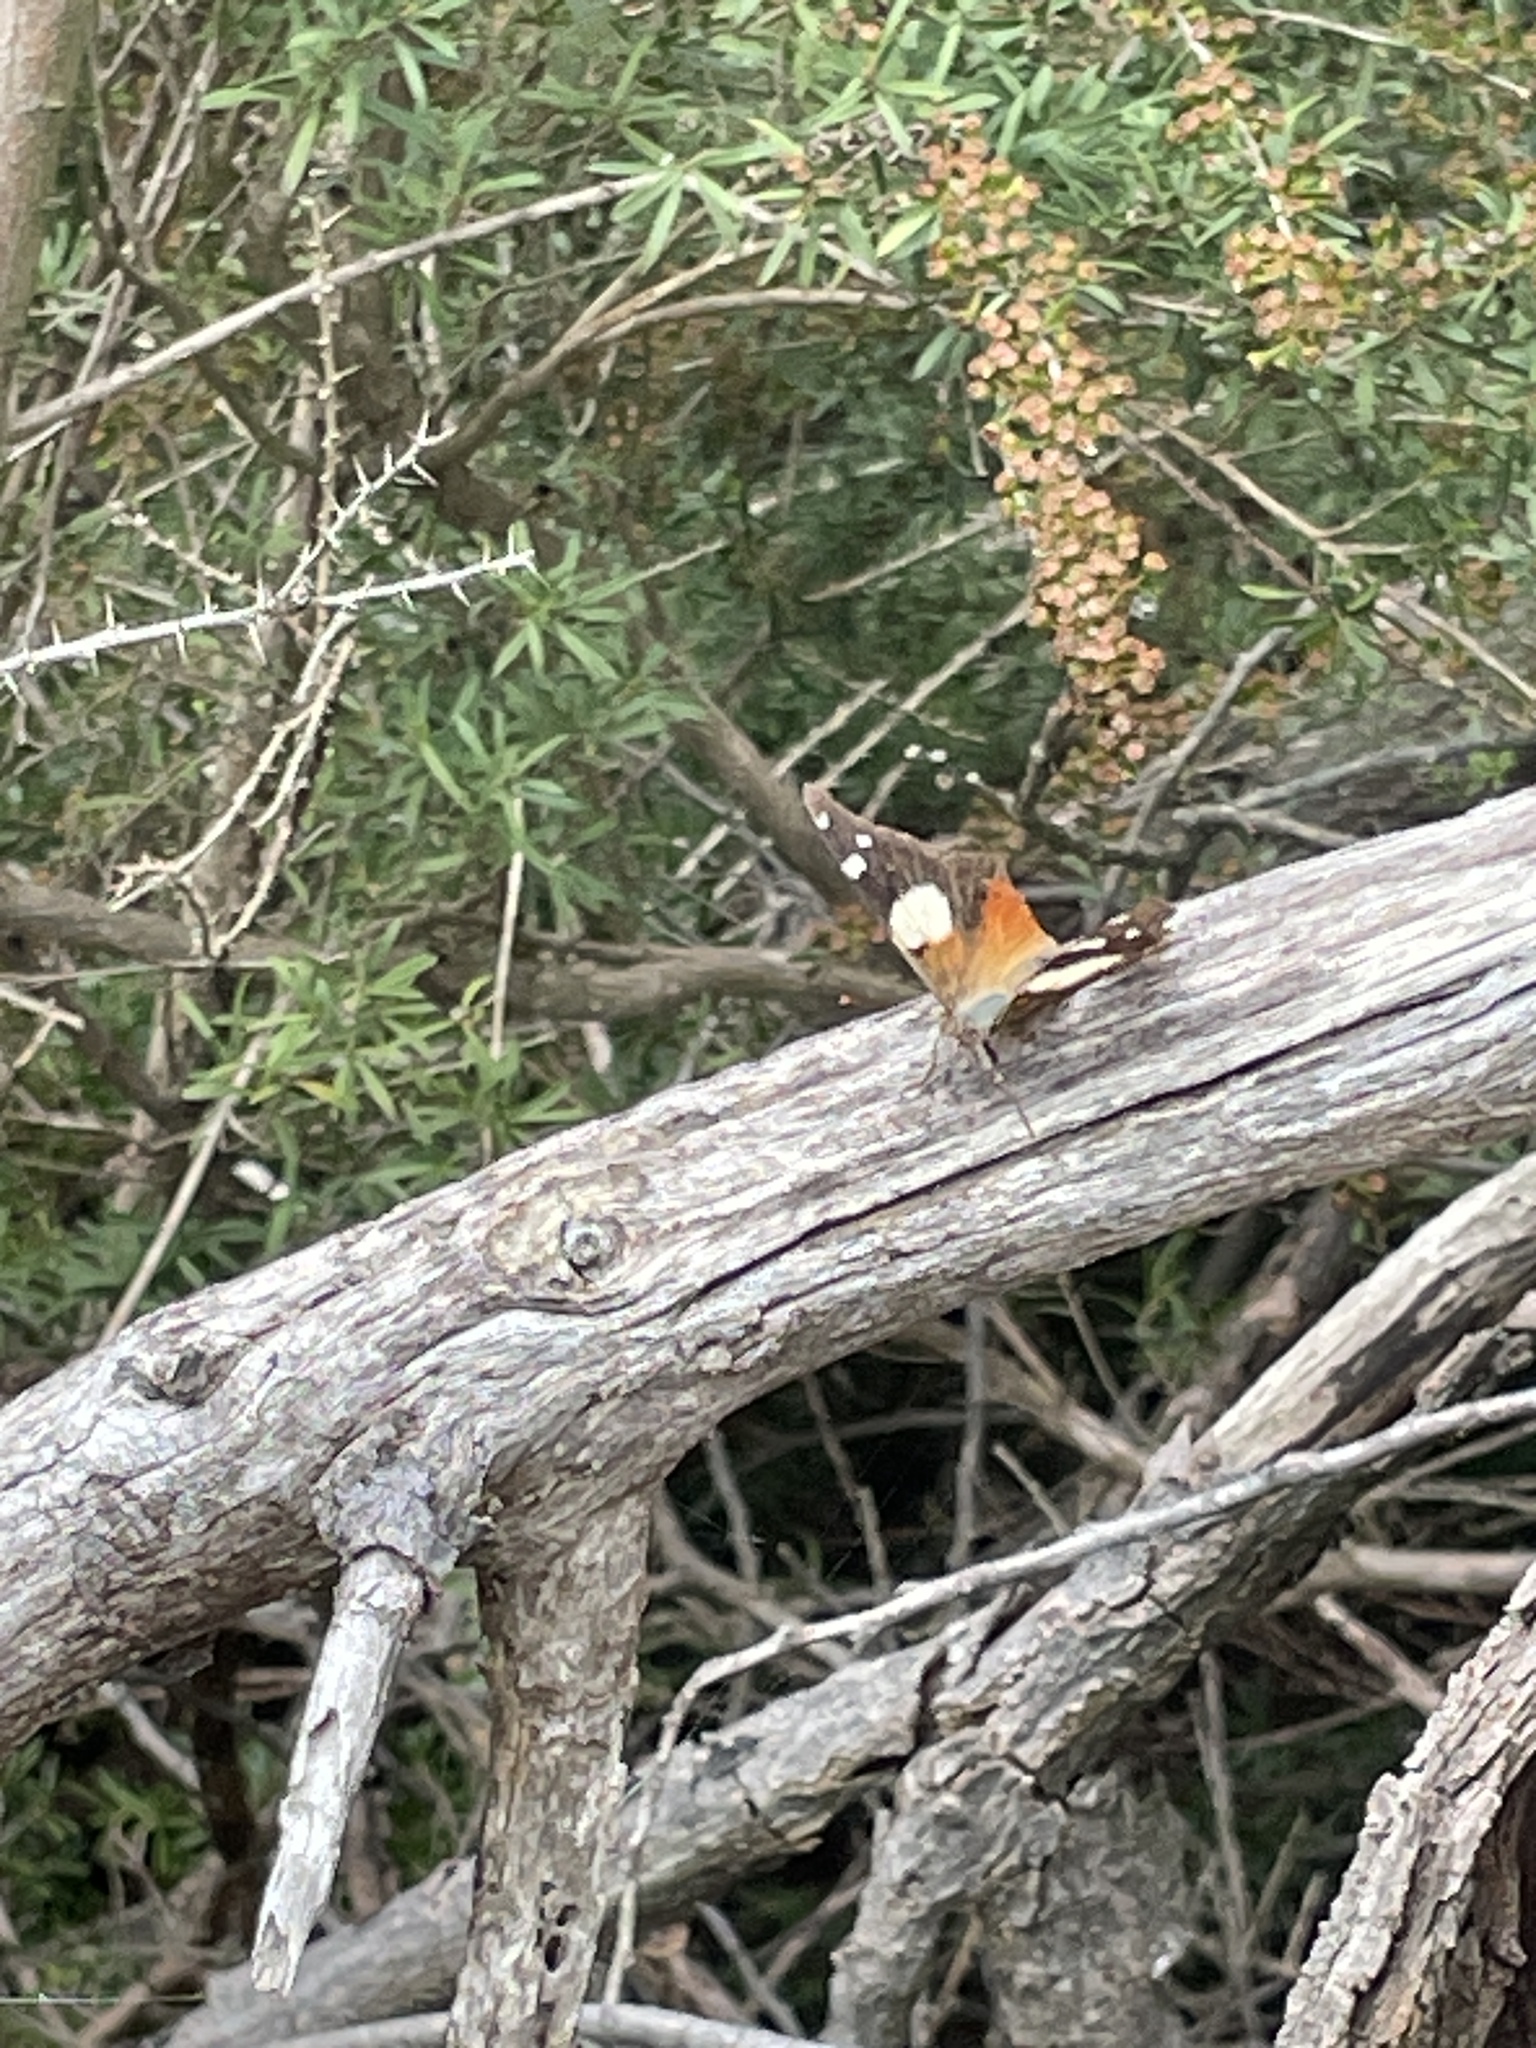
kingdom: Animalia
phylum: Arthropoda
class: Insecta
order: Lepidoptera
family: Nymphalidae
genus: Vanessa
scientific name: Vanessa itea
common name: Yellow admiral
